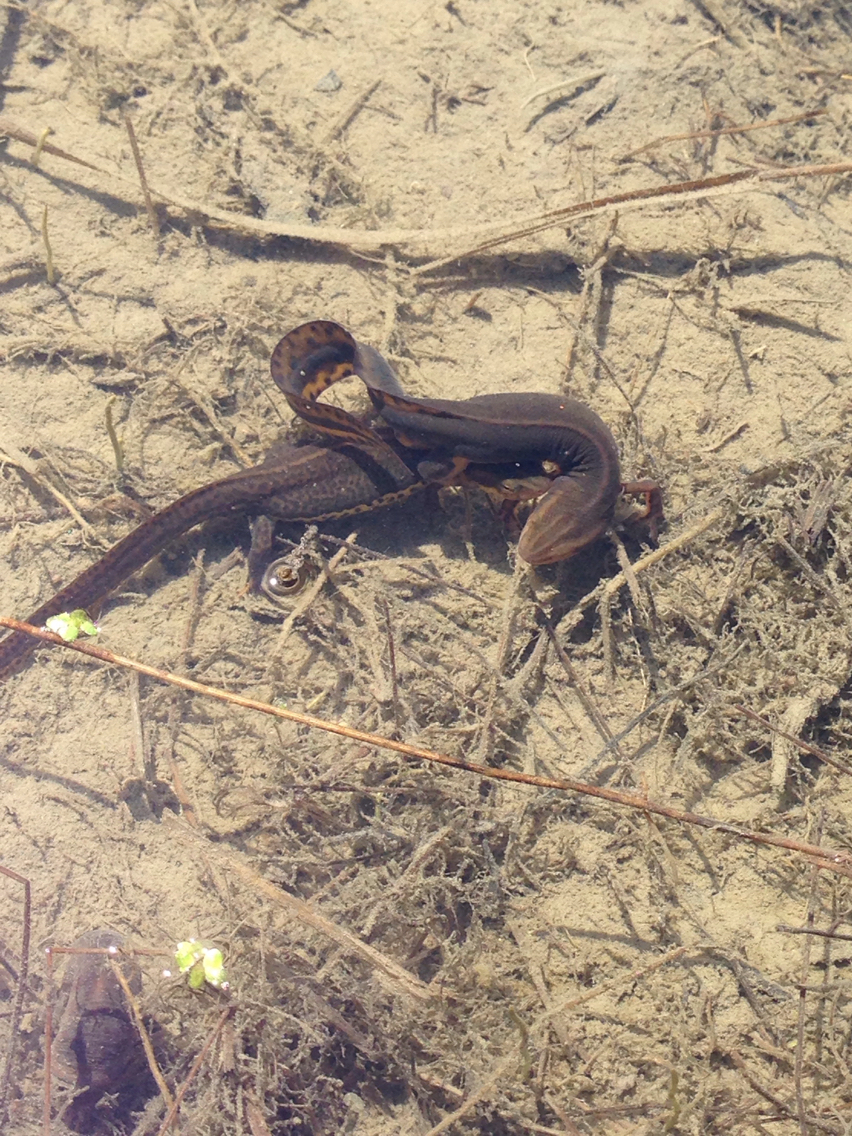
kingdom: Animalia
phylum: Chordata
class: Amphibia
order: Caudata
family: Salamandridae
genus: Notophthalmus
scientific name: Notophthalmus viridescens
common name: Eastern newt
